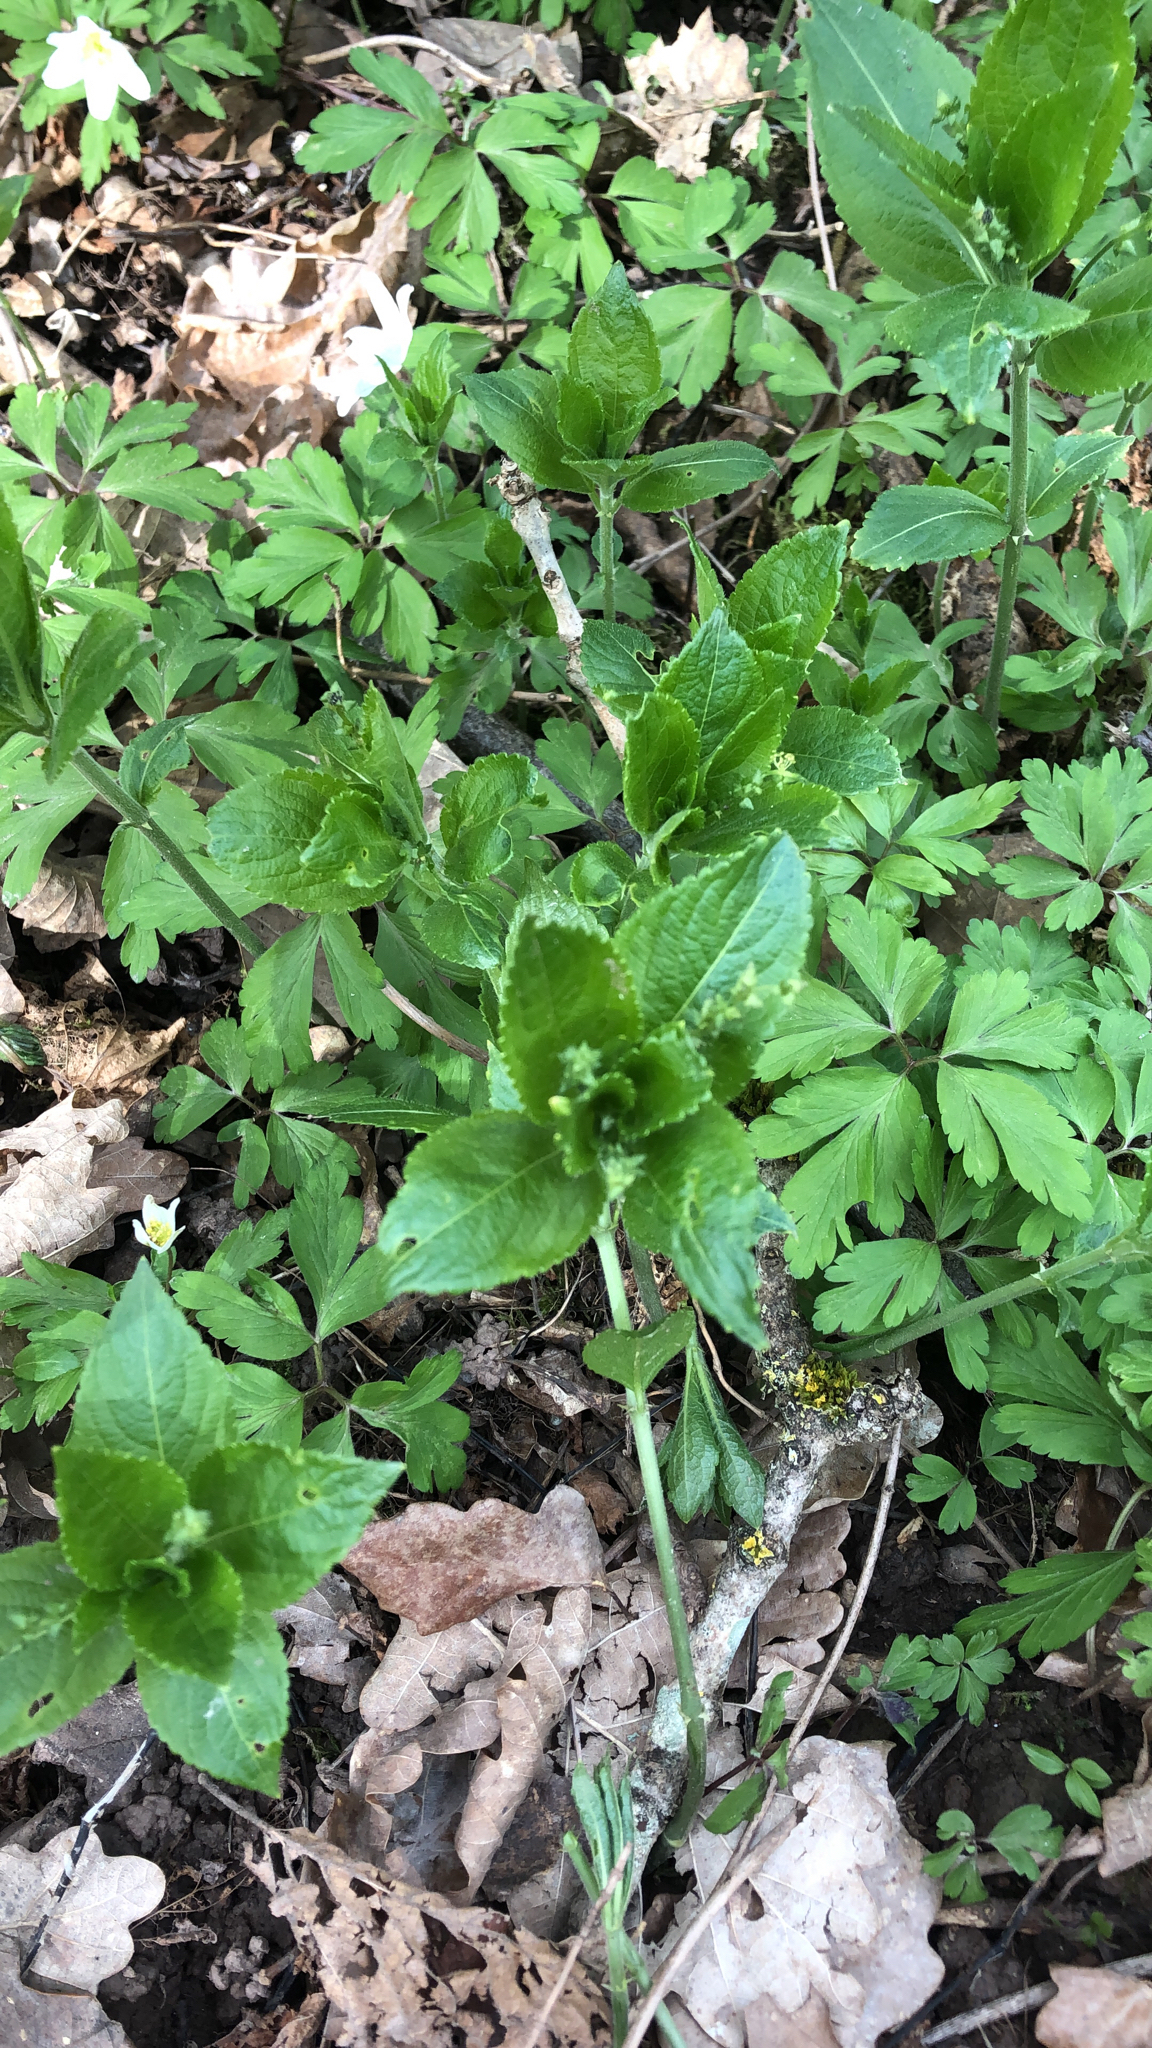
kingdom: Plantae
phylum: Tracheophyta
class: Magnoliopsida
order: Malpighiales
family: Euphorbiaceae
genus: Mercurialis
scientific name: Mercurialis perennis
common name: Dog mercury
